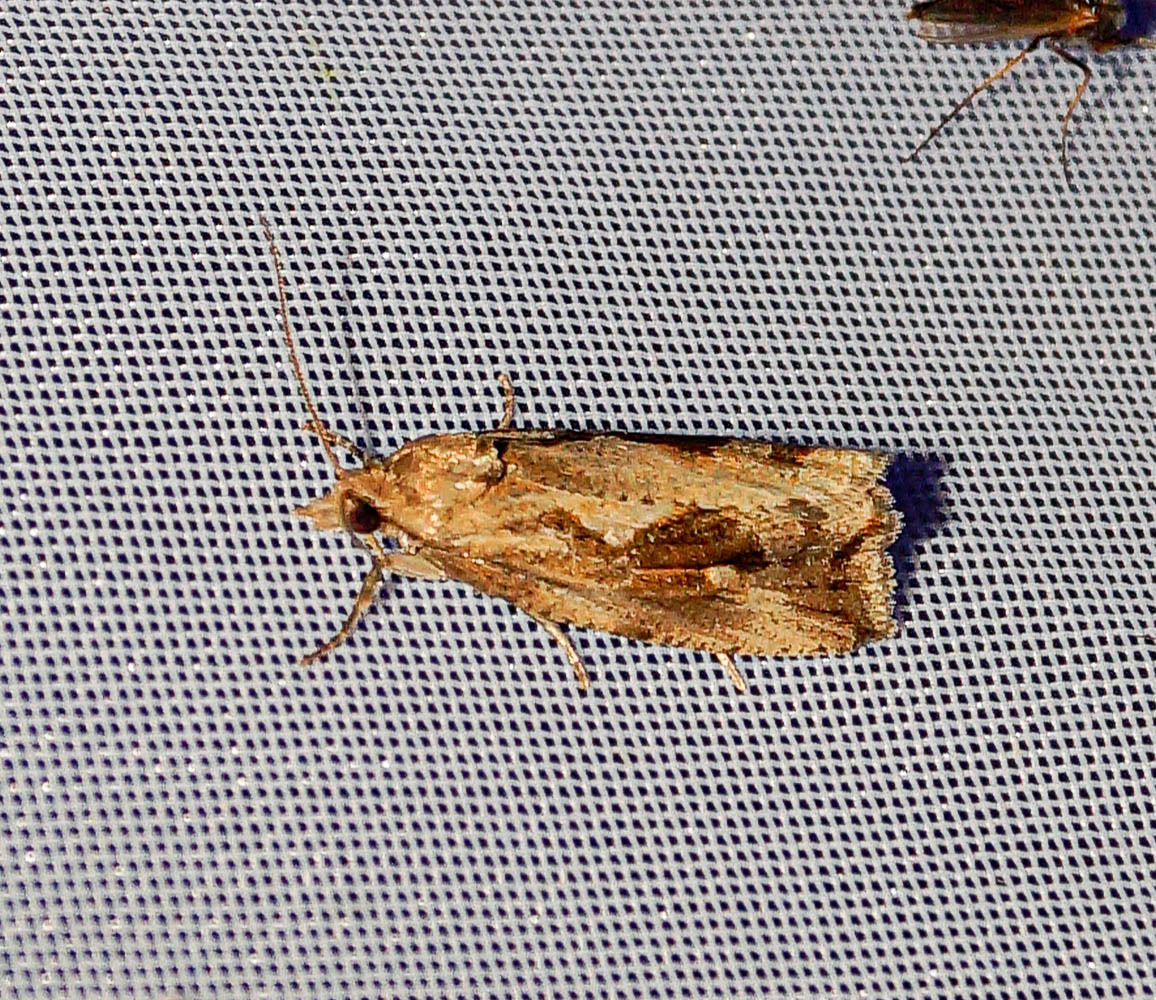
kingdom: Animalia
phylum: Arthropoda
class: Insecta
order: Lepidoptera
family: Tortricidae
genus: Endothenia
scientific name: Endothenia quadrimaculana
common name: Tortricid moth
